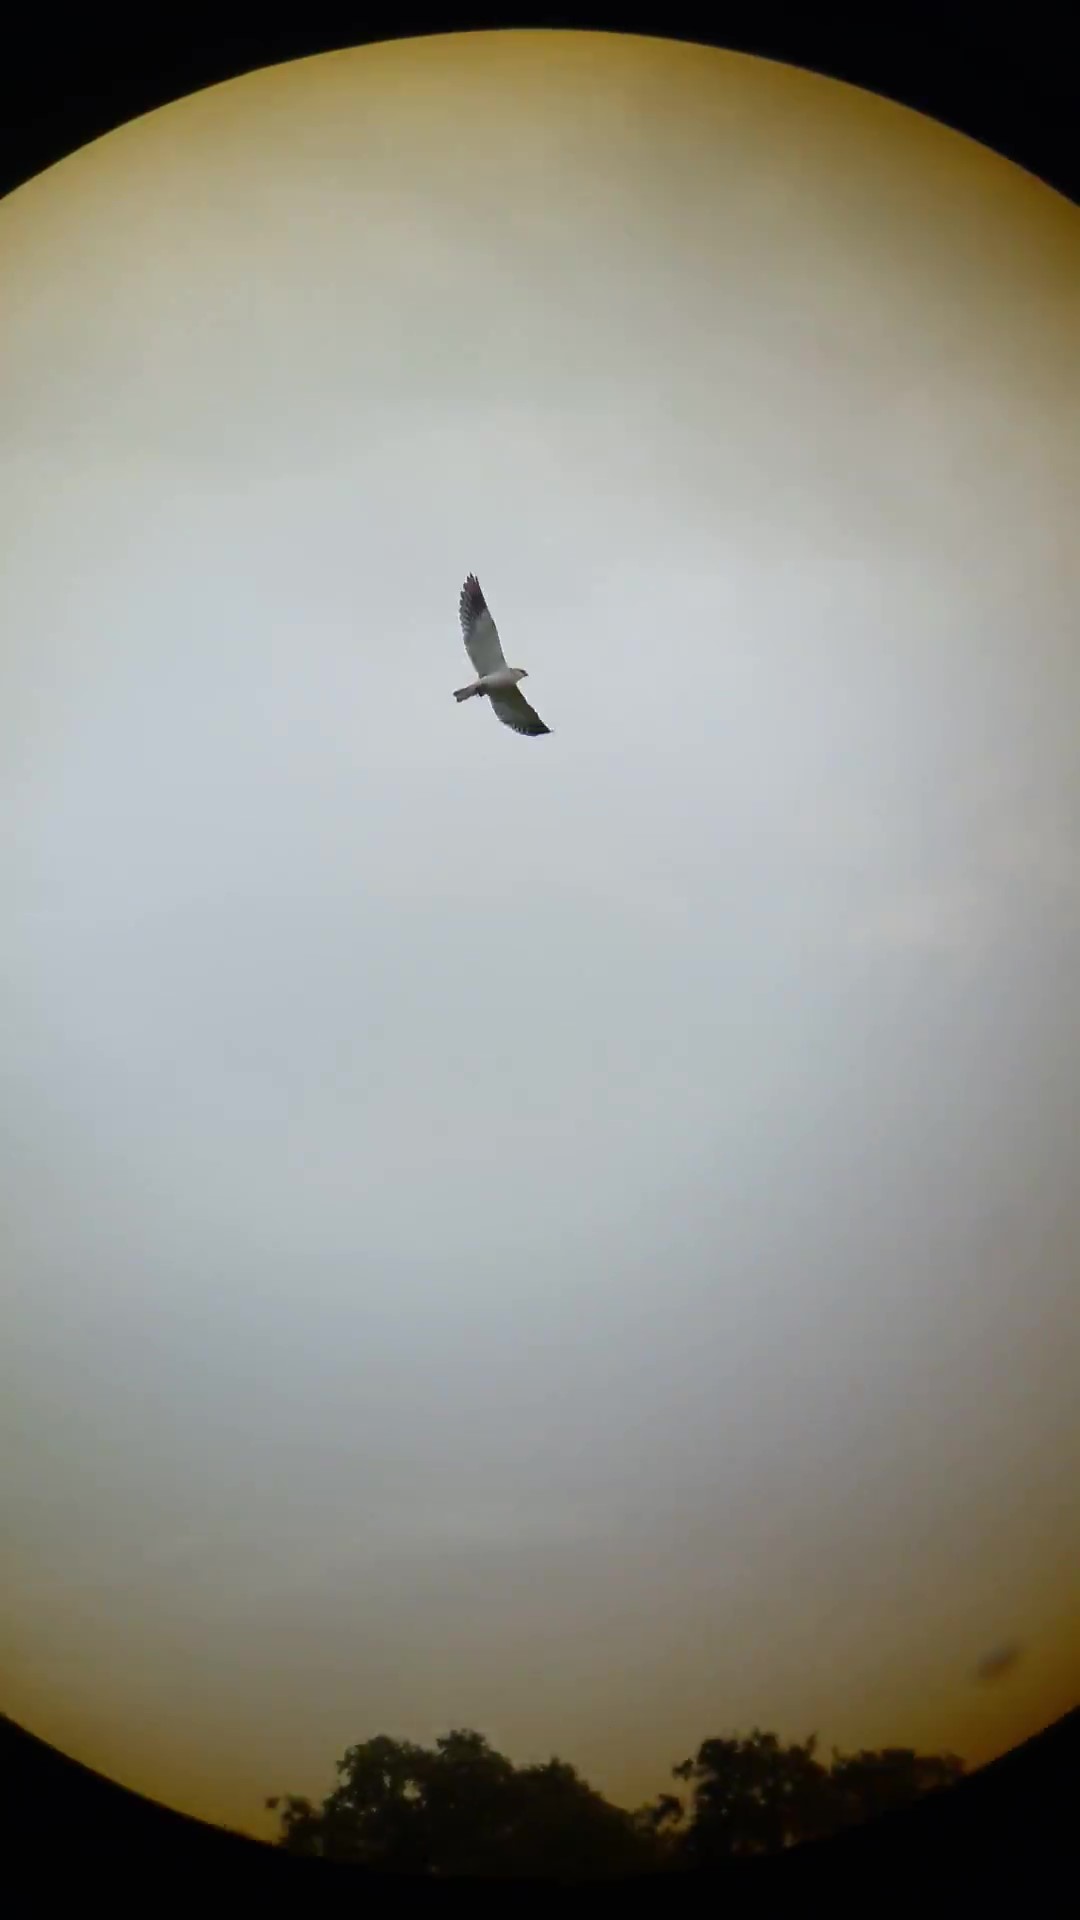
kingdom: Animalia
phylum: Chordata
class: Aves
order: Accipitriformes
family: Accipitridae
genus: Elanus
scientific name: Elanus caeruleus
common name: Black-winged kite
